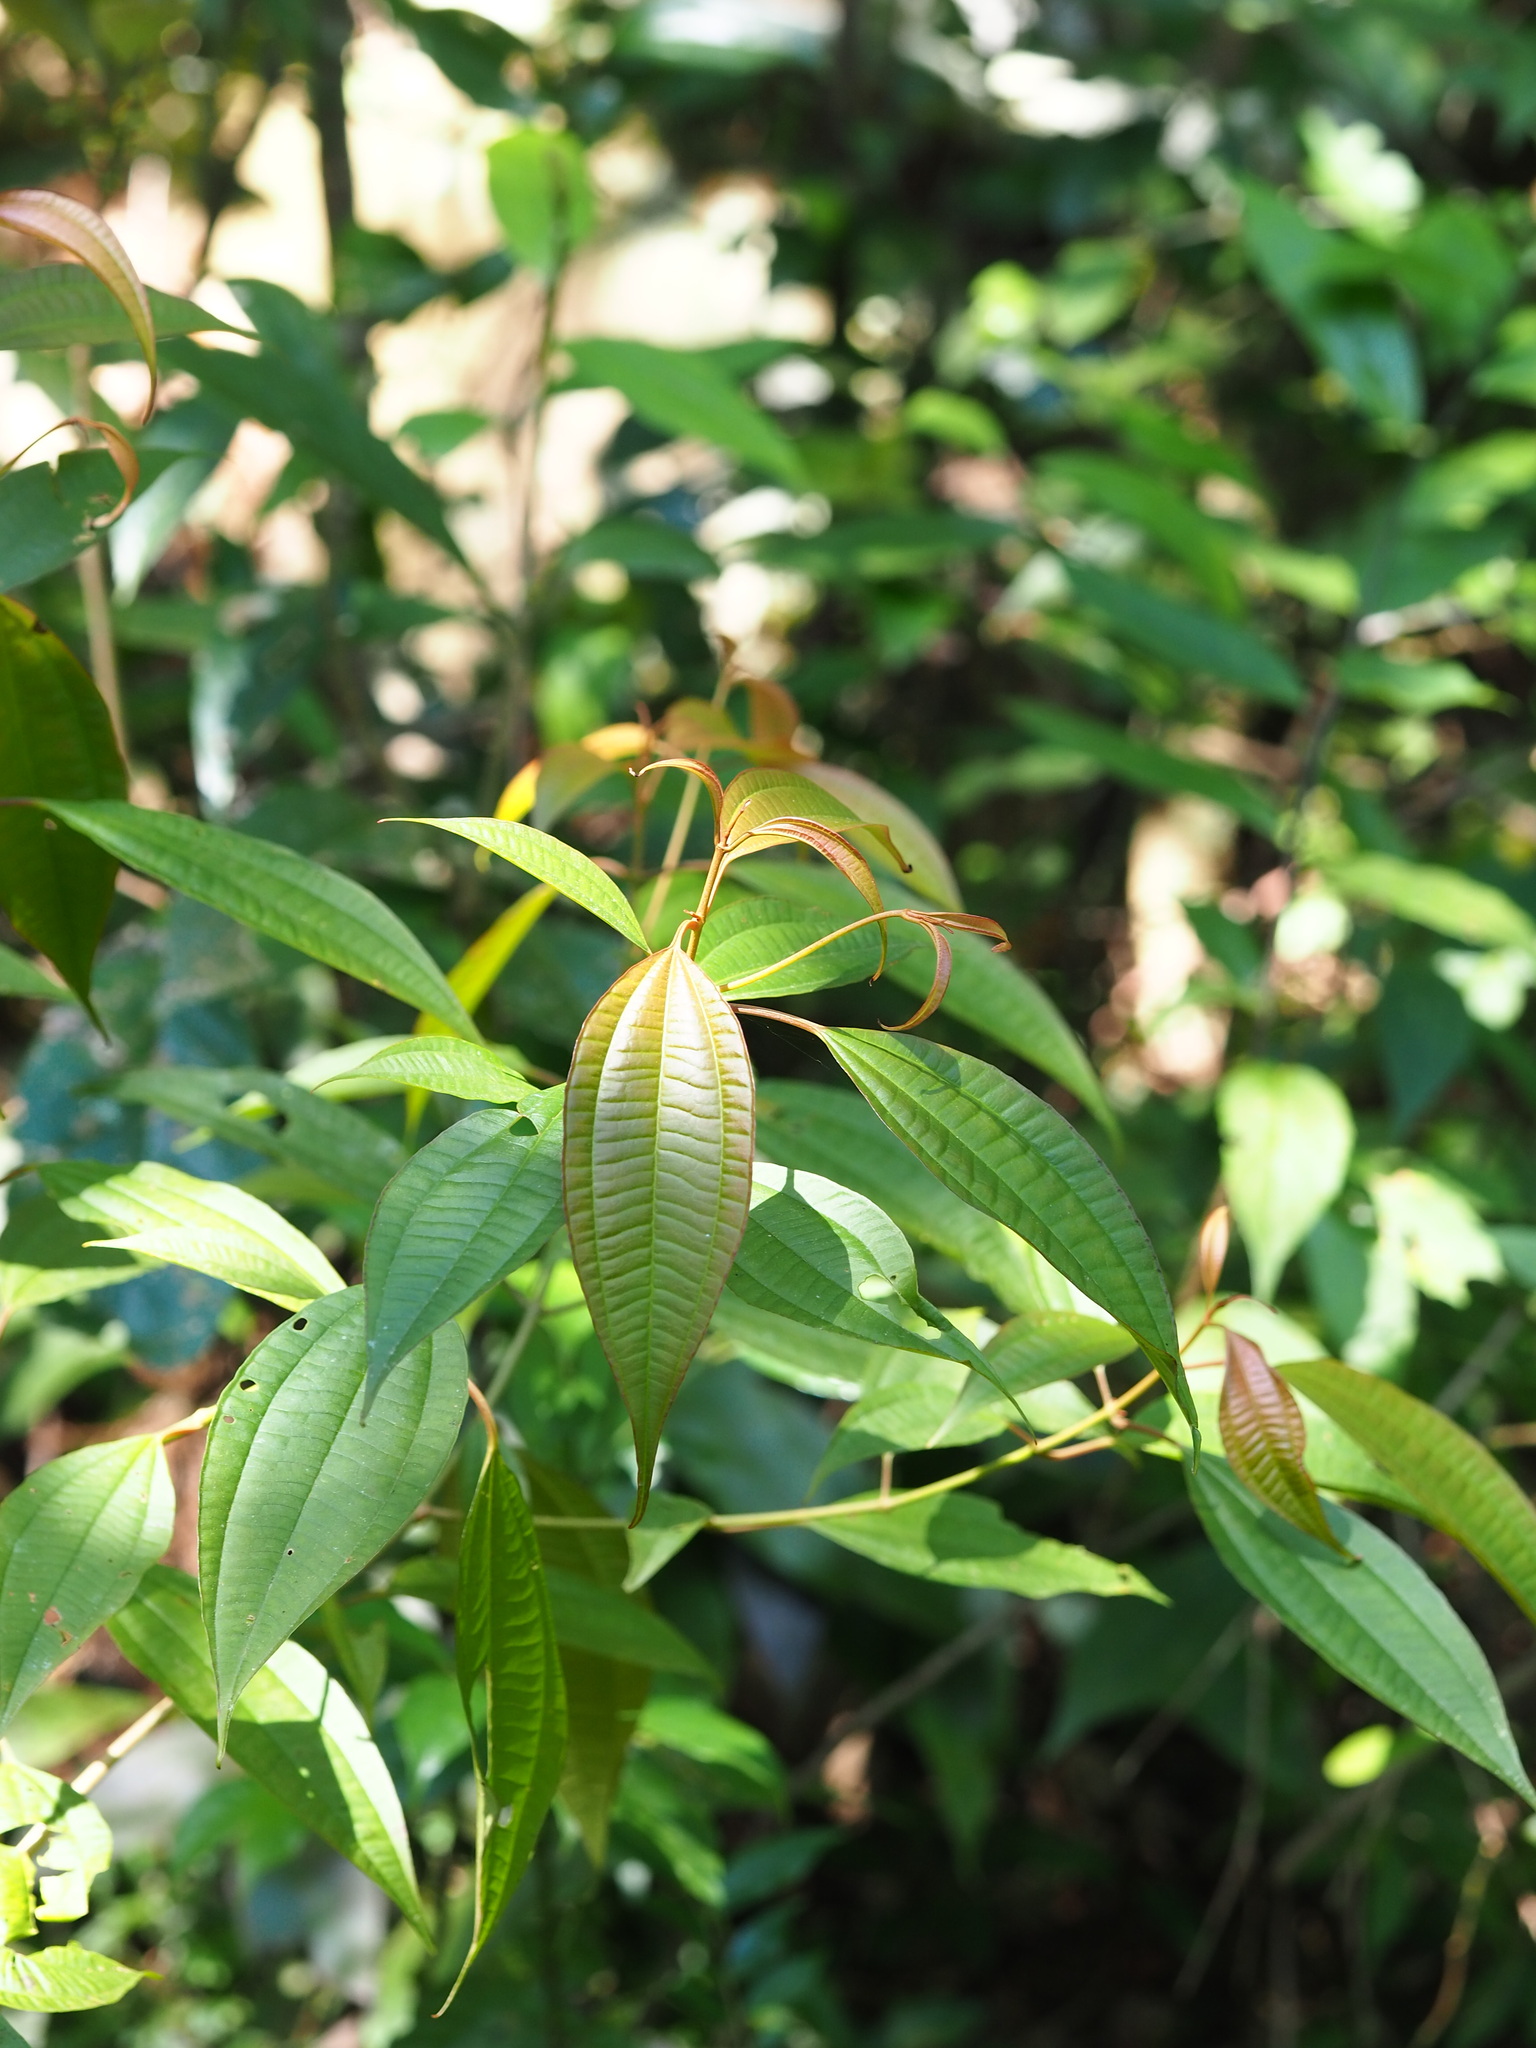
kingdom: Plantae
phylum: Tracheophyta
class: Magnoliopsida
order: Myrtales
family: Melastomataceae
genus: Blastus
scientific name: Blastus cochinchinensis
